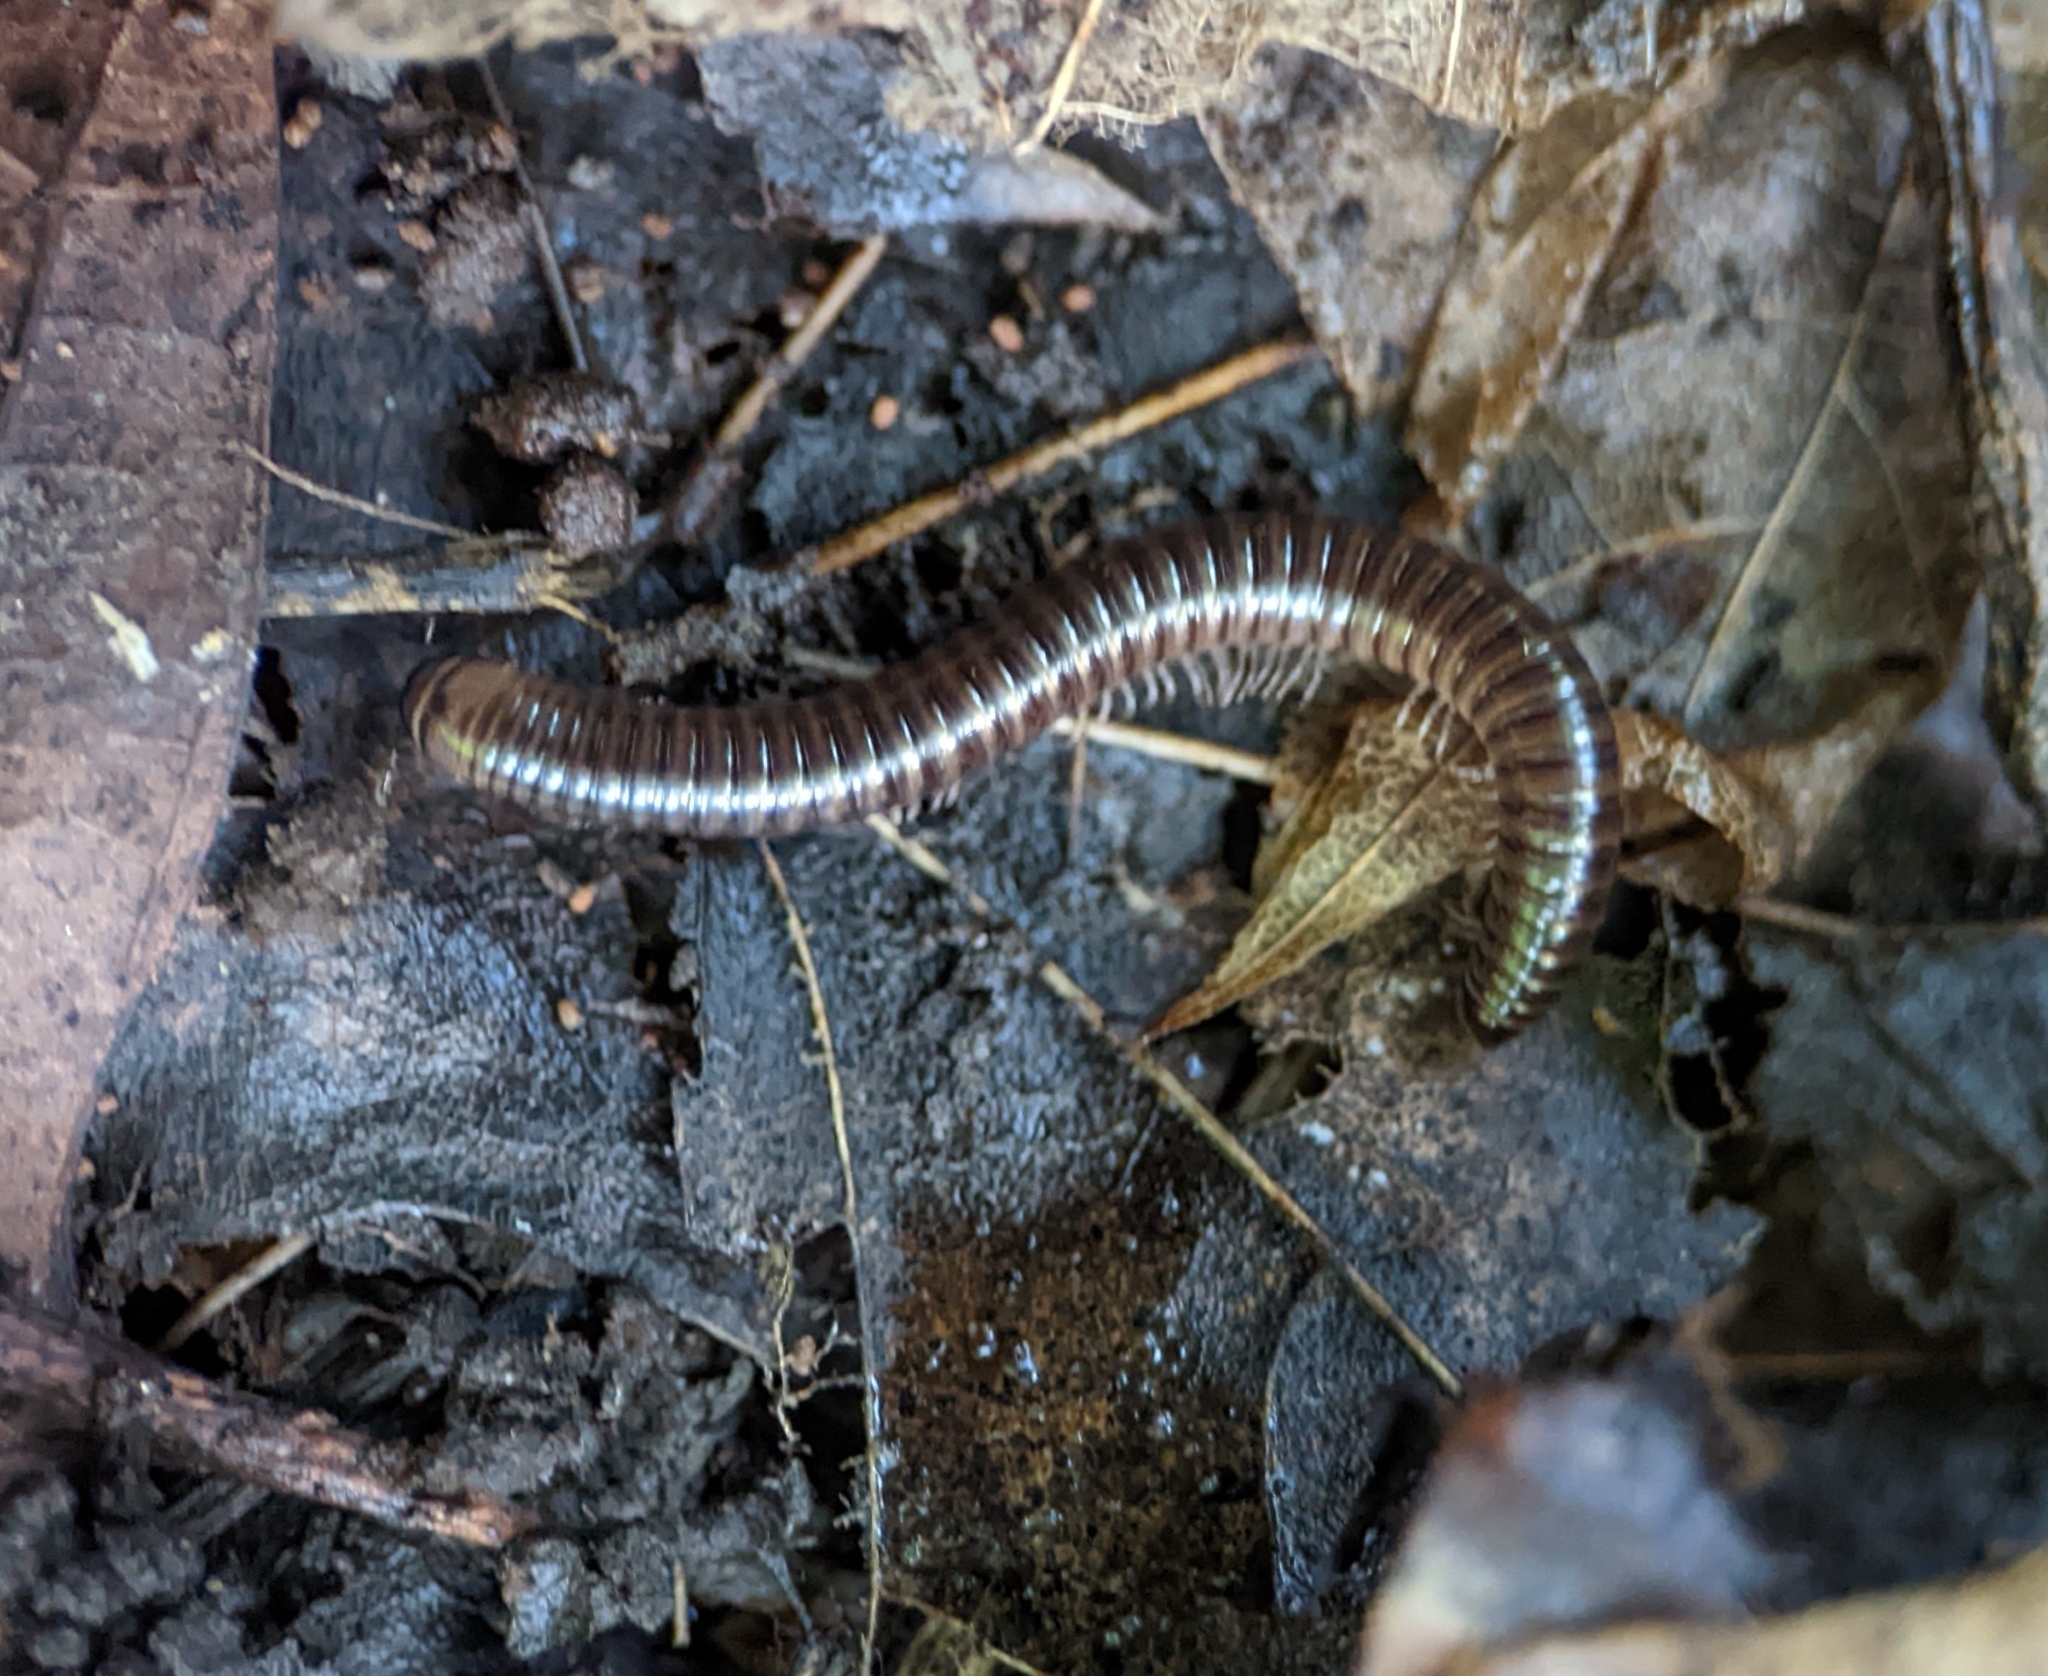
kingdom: Animalia
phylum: Arthropoda
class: Diplopoda
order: Julida
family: Julidae
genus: Cylindroiulus
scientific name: Cylindroiulus caeruleocinctus
